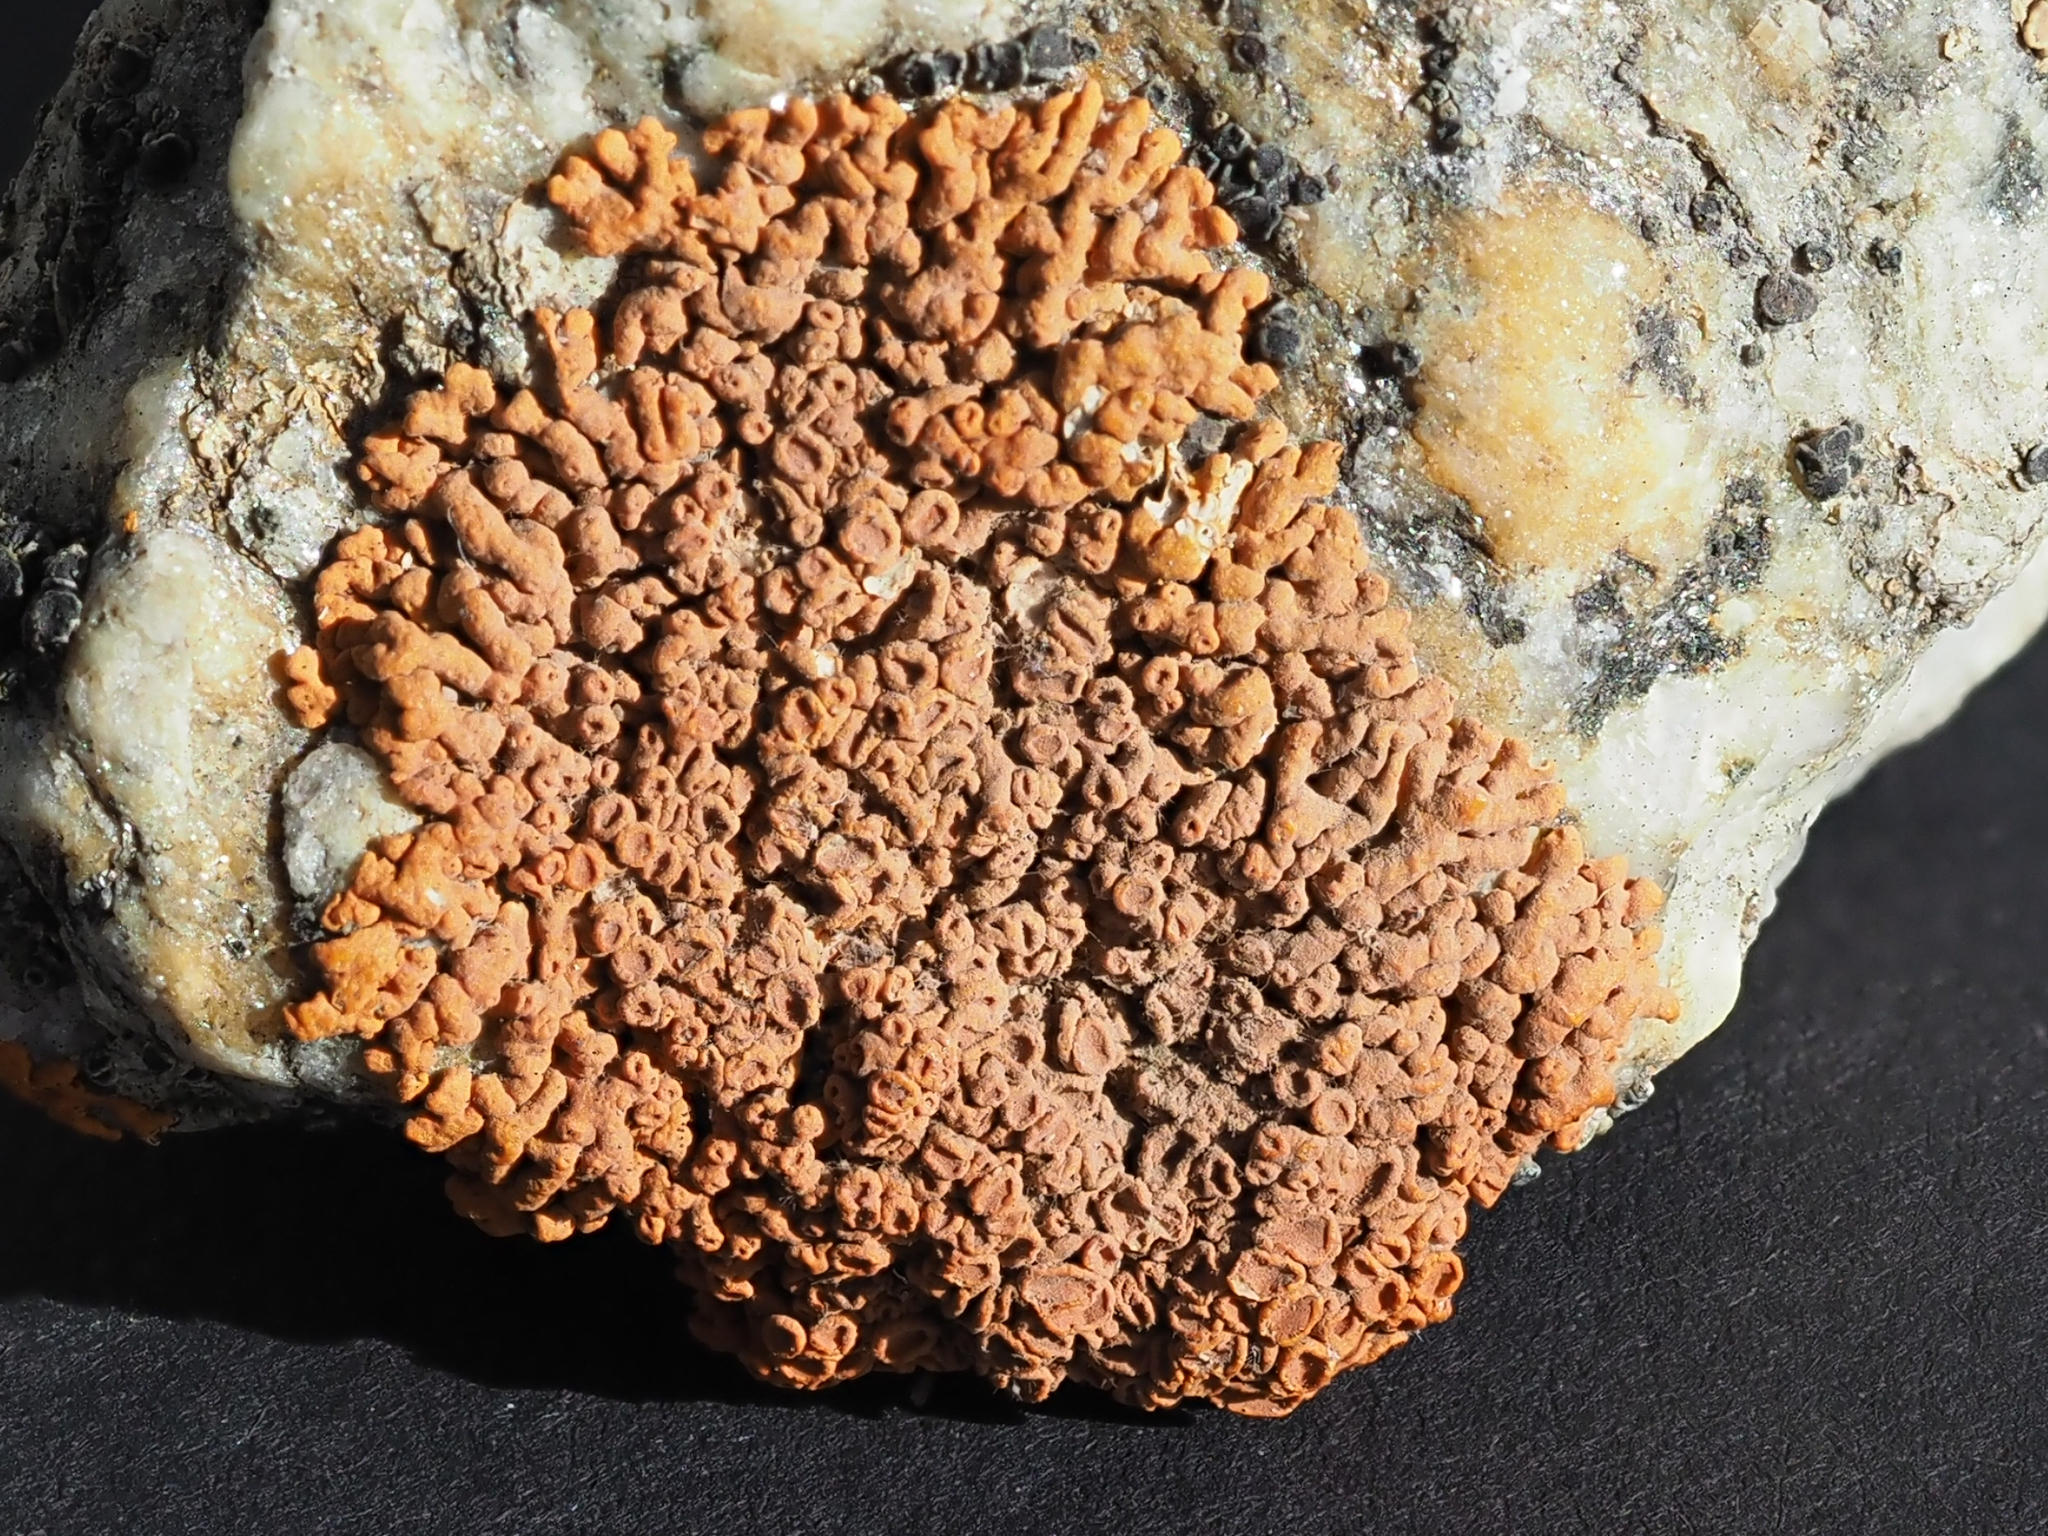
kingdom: Fungi
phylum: Ascomycota
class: Lecanoromycetes
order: Teloschistales
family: Teloschistaceae
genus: Xanthoria
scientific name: Xanthoria elegans
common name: Elegant sunburst lichen
